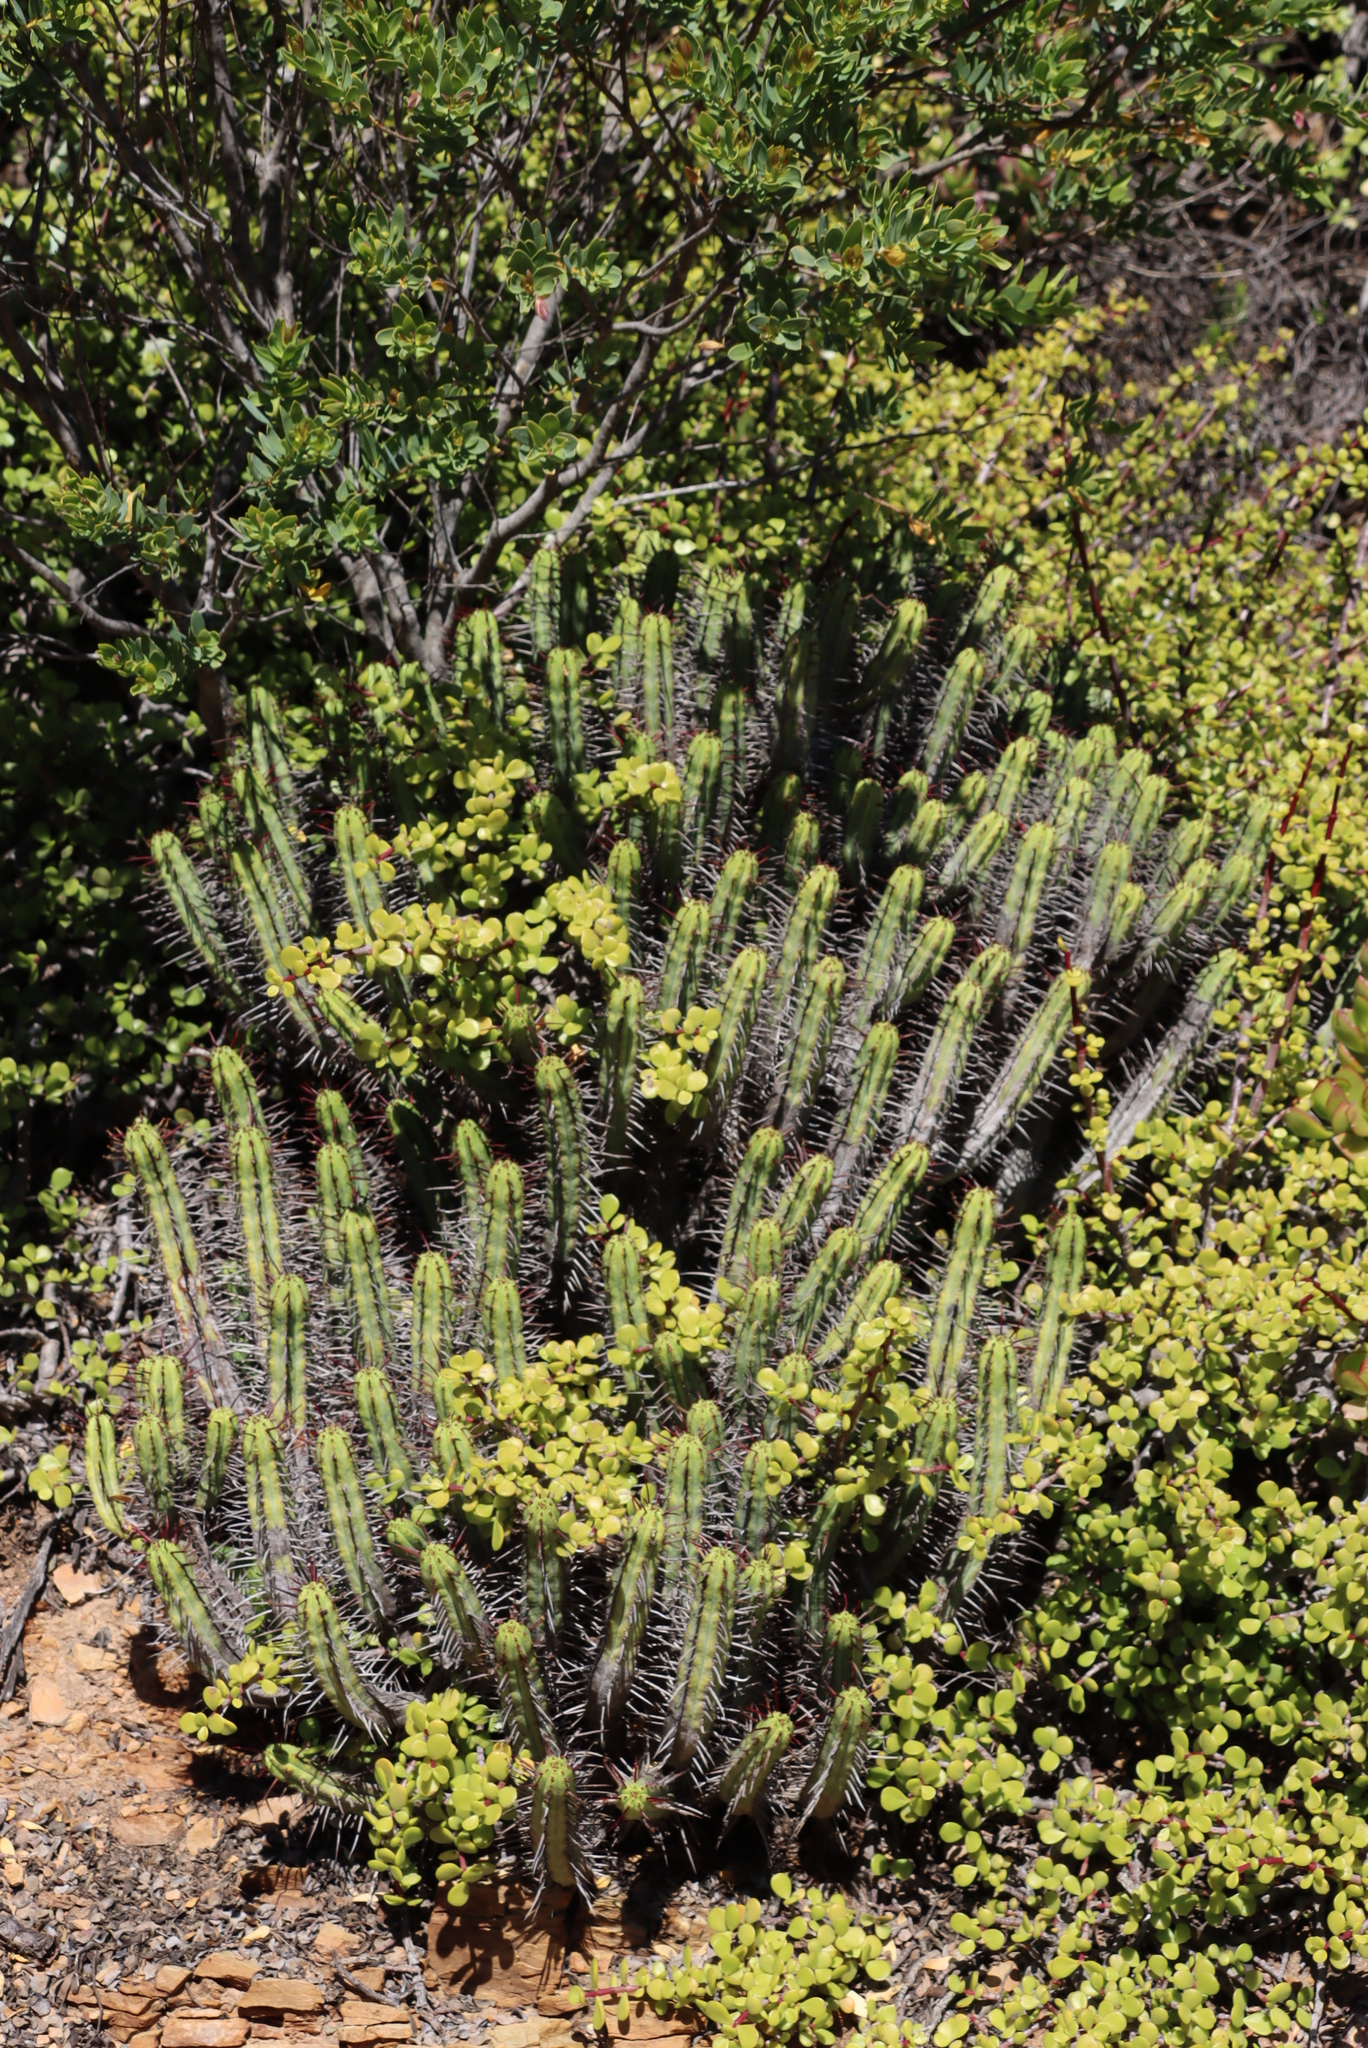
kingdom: Plantae
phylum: Tracheophyta
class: Magnoliopsida
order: Caryophyllales
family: Didiereaceae
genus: Portulacaria
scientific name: Portulacaria afra
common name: Elephant-bush
